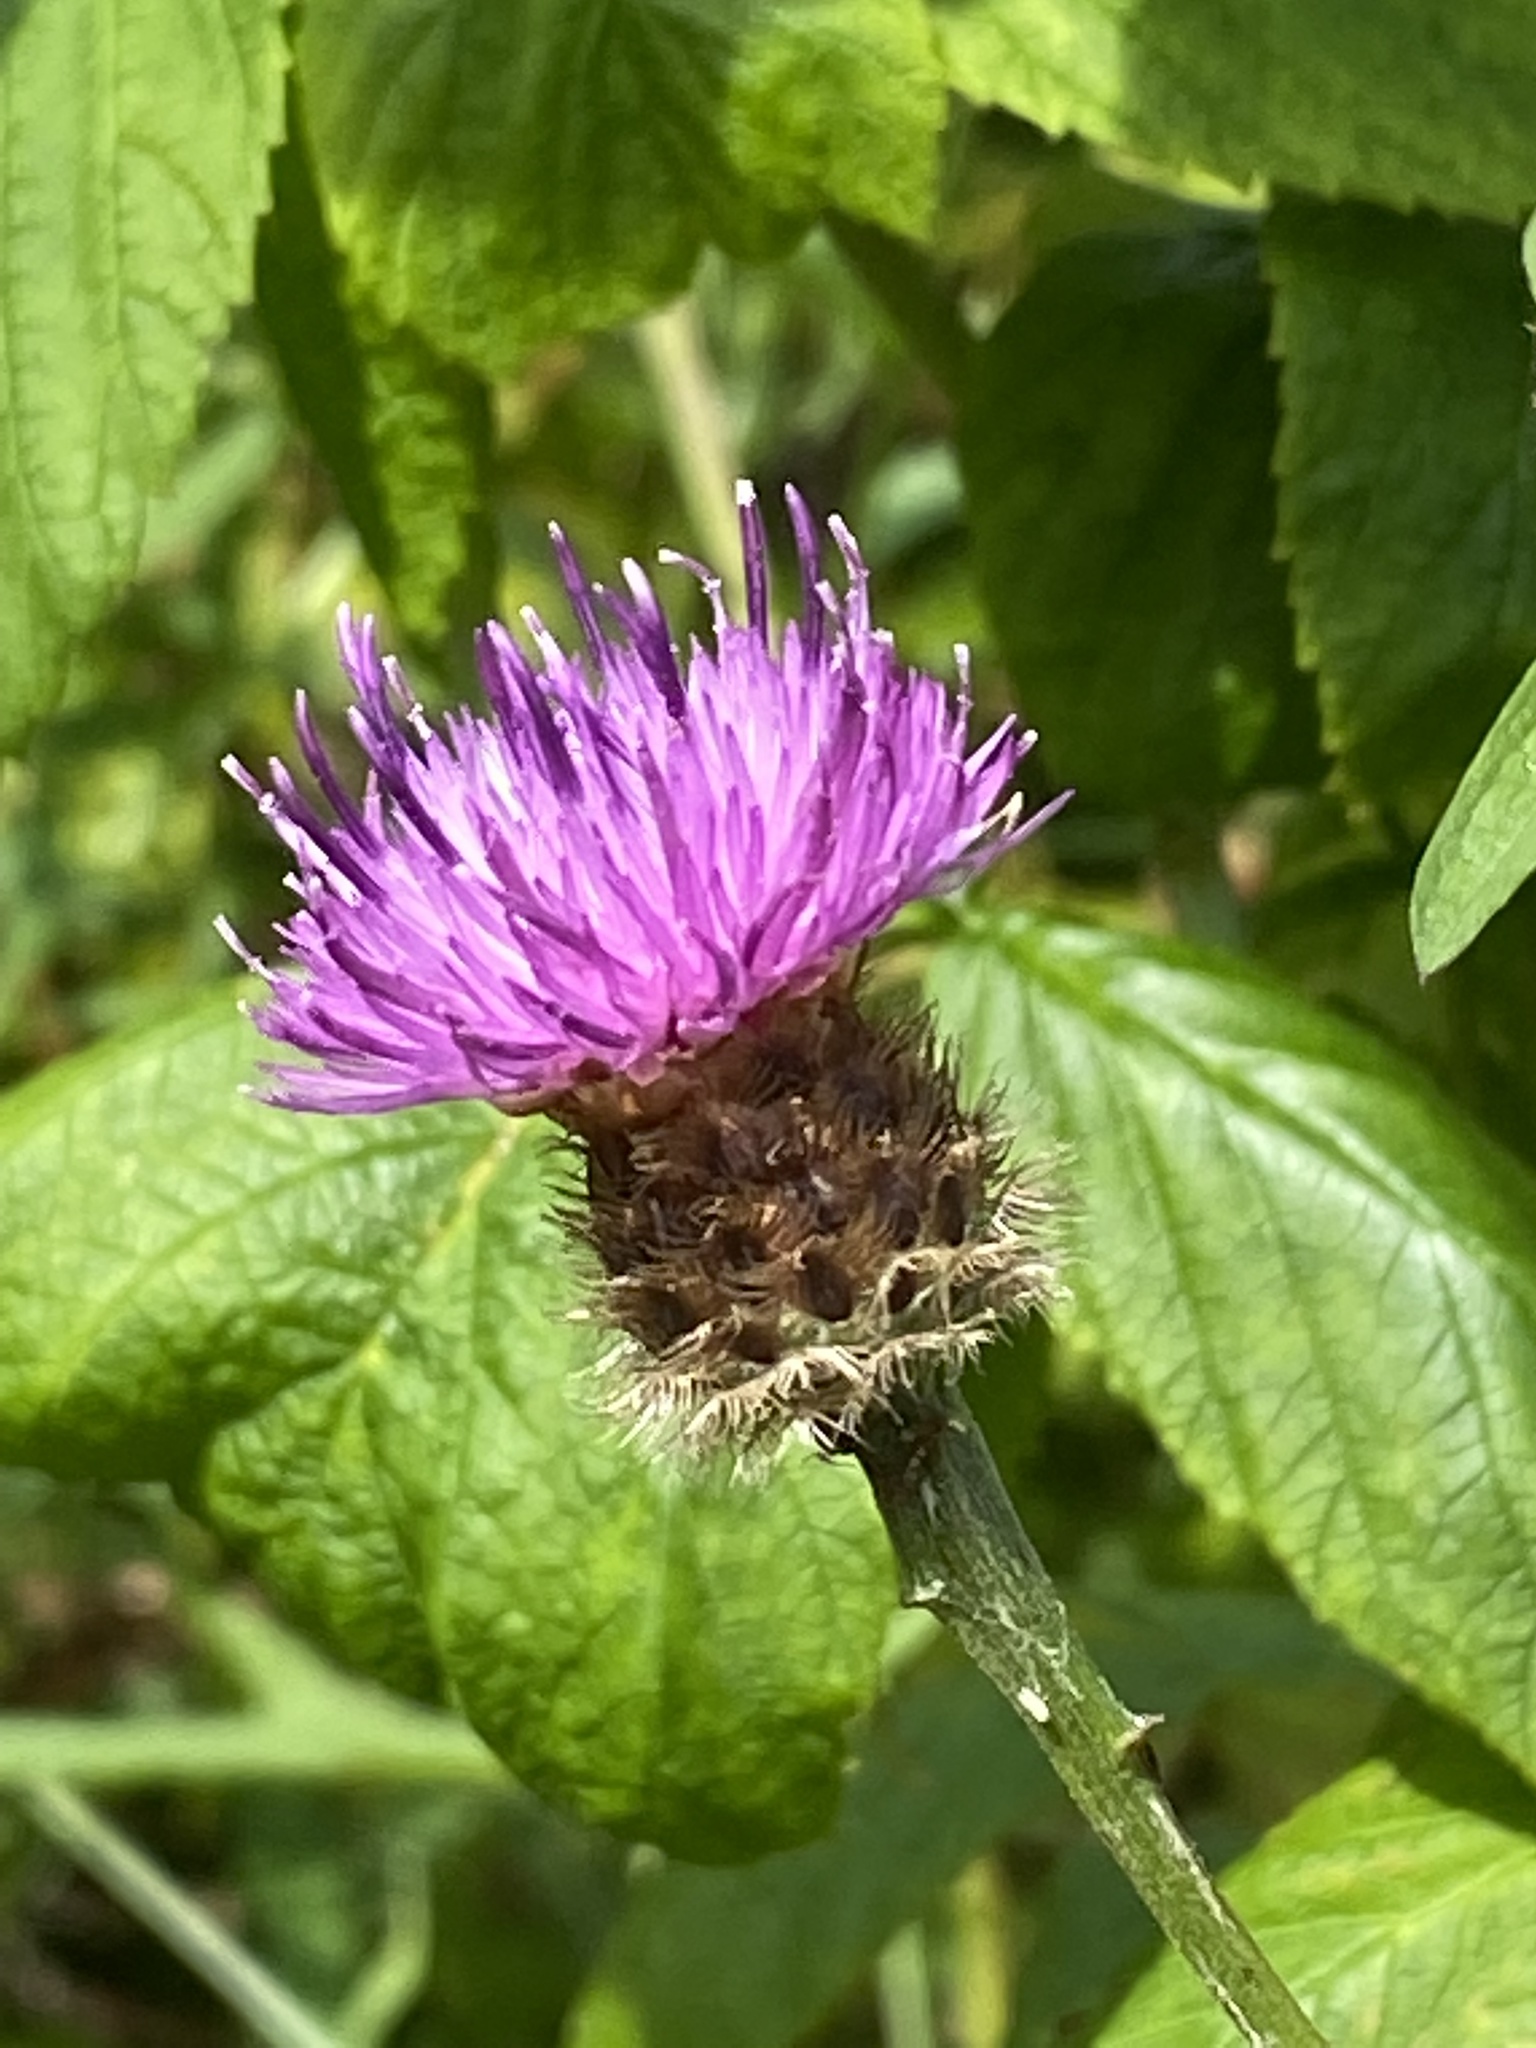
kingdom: Plantae
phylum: Tracheophyta
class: Magnoliopsida
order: Asterales
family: Asteraceae
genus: Centaurea
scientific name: Centaurea nigra
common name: Lesser knapweed
